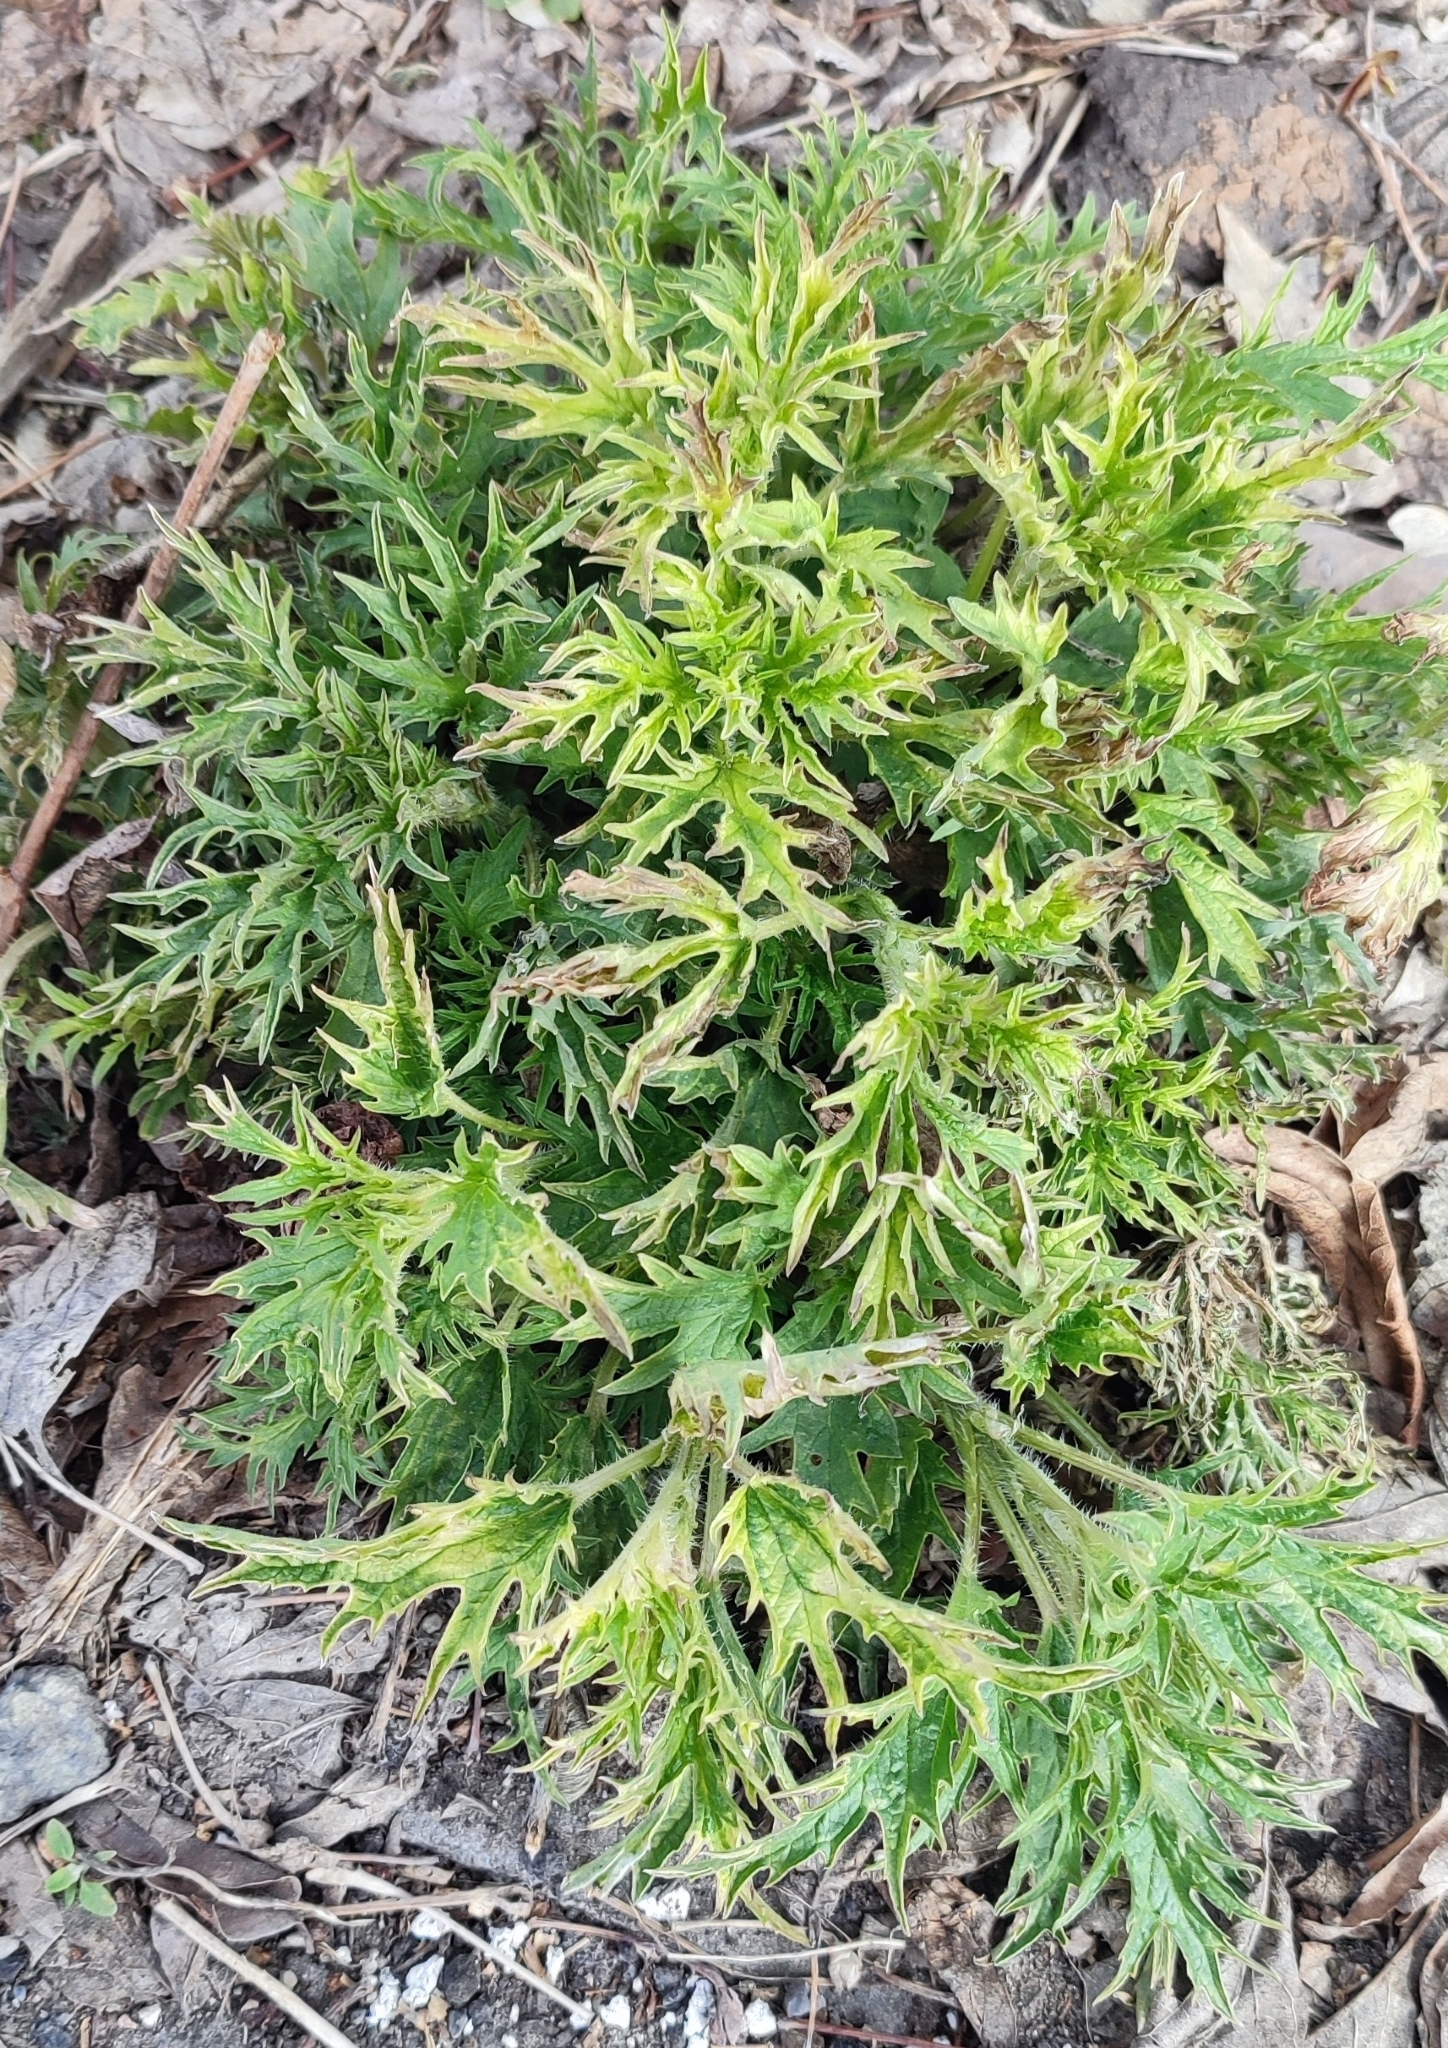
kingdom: Plantae
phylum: Tracheophyta
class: Magnoliopsida
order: Rosales
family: Urticaceae
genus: Urtica
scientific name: Urtica cannabina
